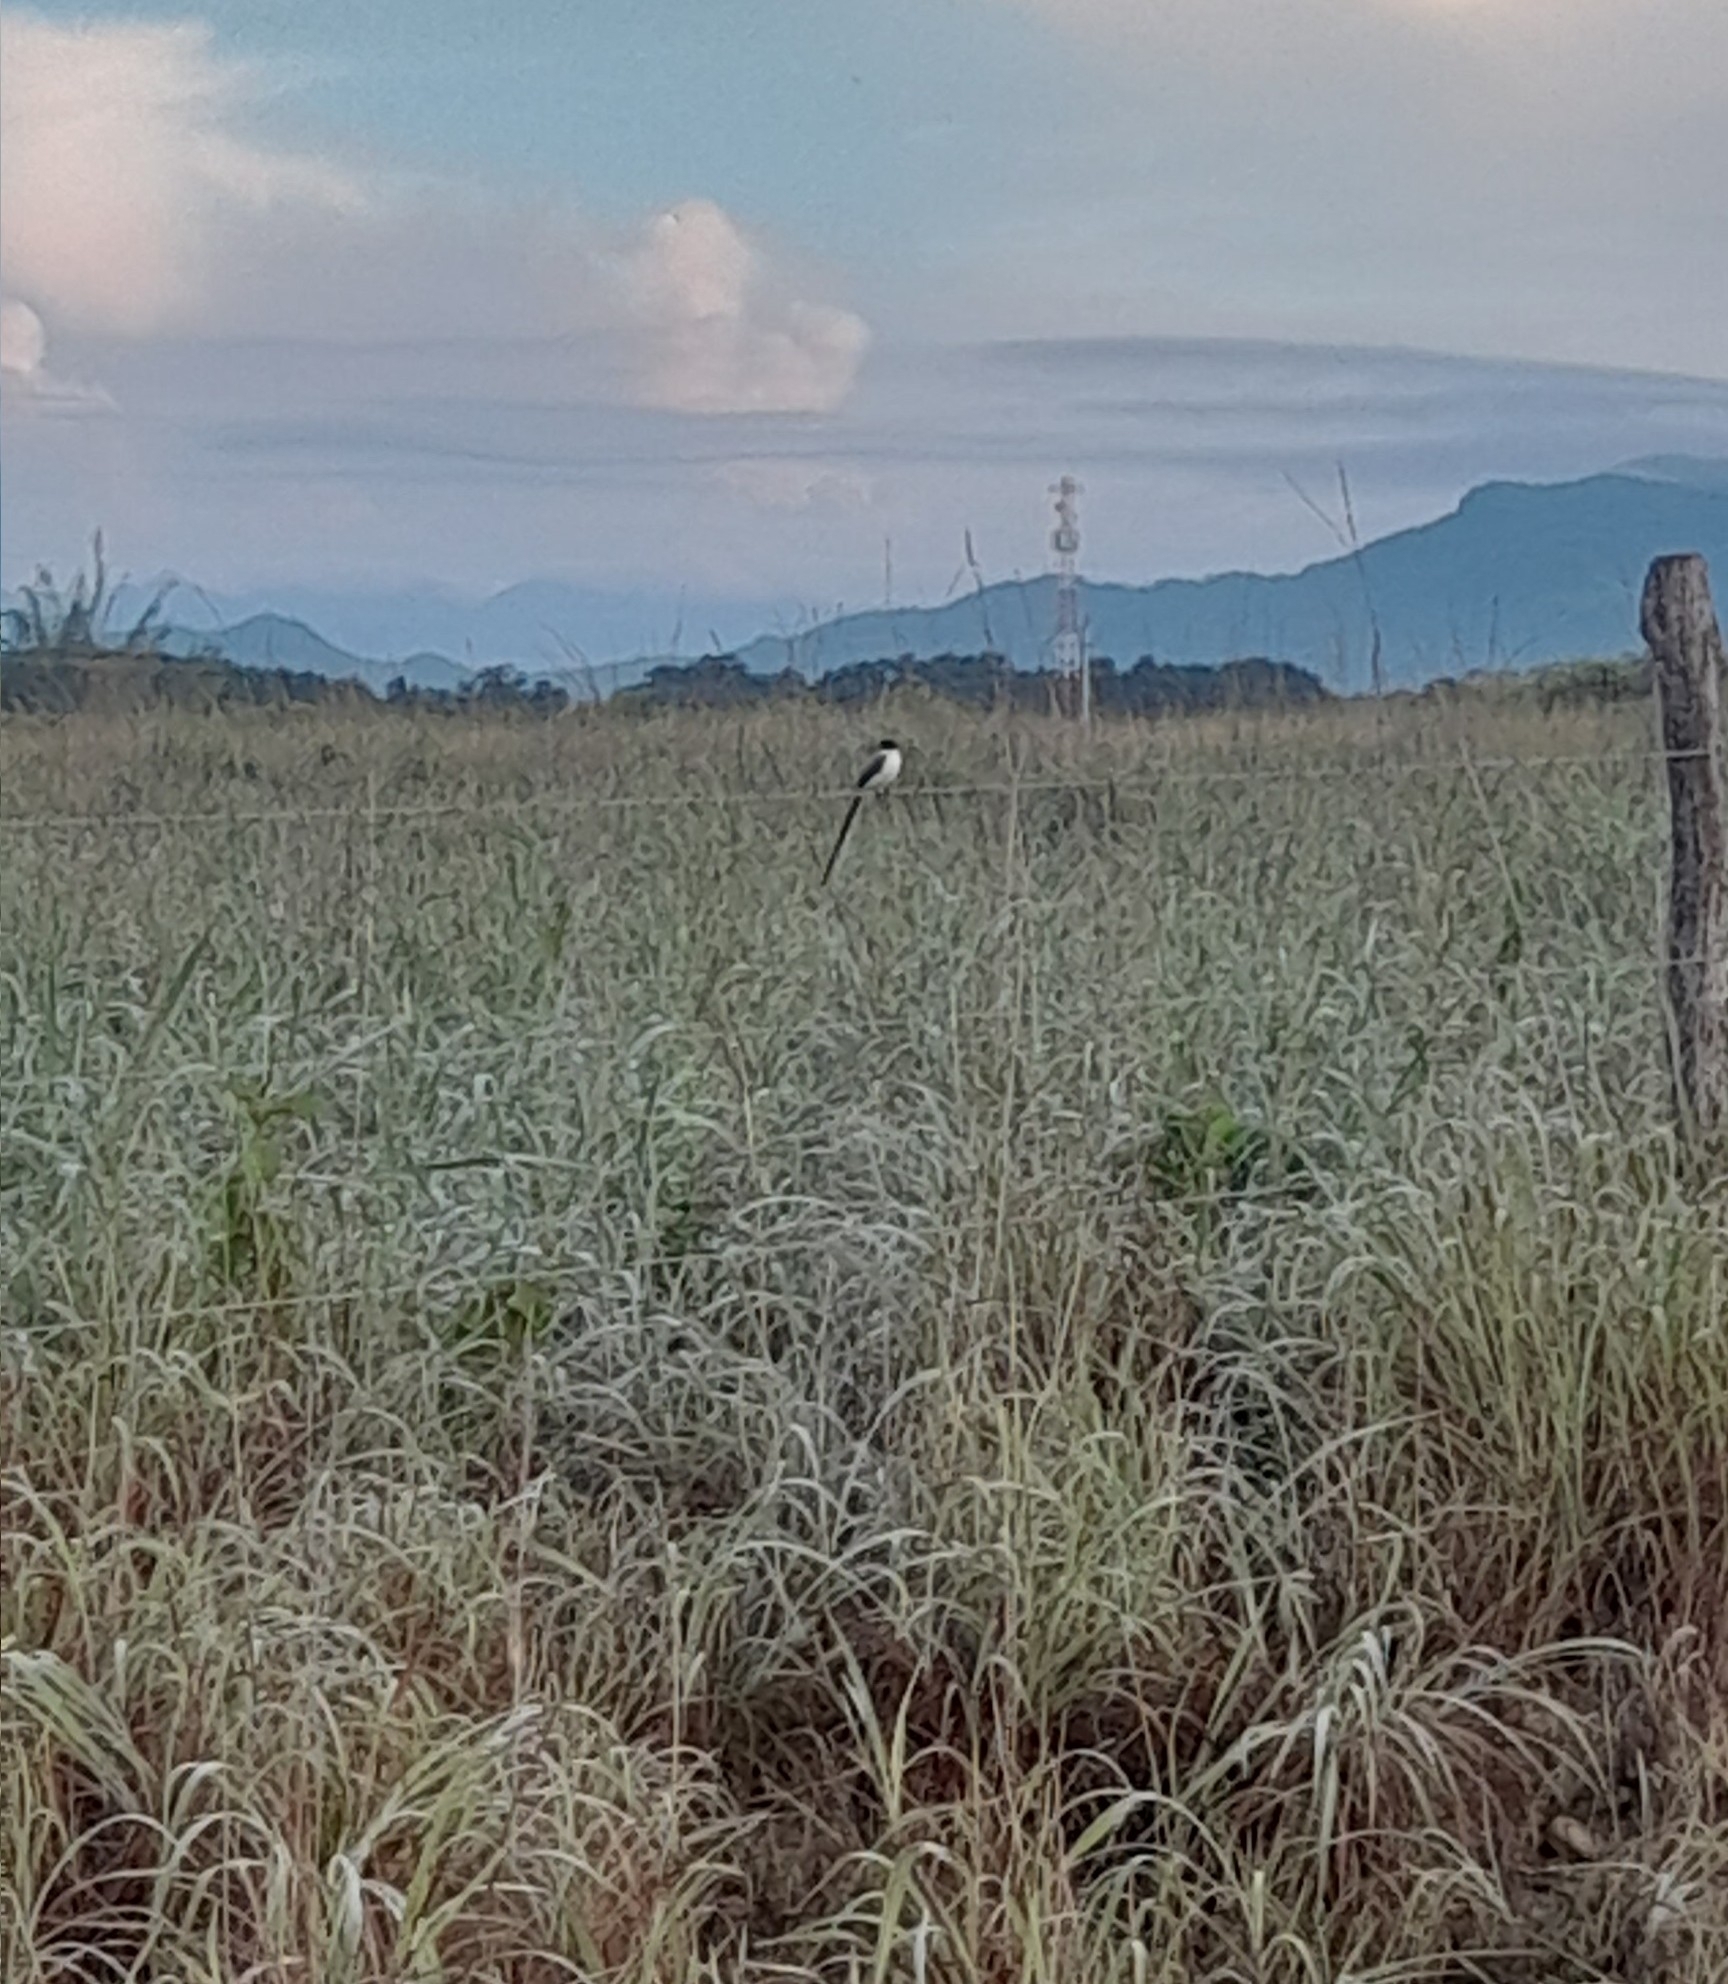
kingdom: Animalia
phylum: Chordata
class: Aves
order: Passeriformes
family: Tyrannidae
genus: Tyrannus
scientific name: Tyrannus savana
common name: Fork-tailed flycatcher
